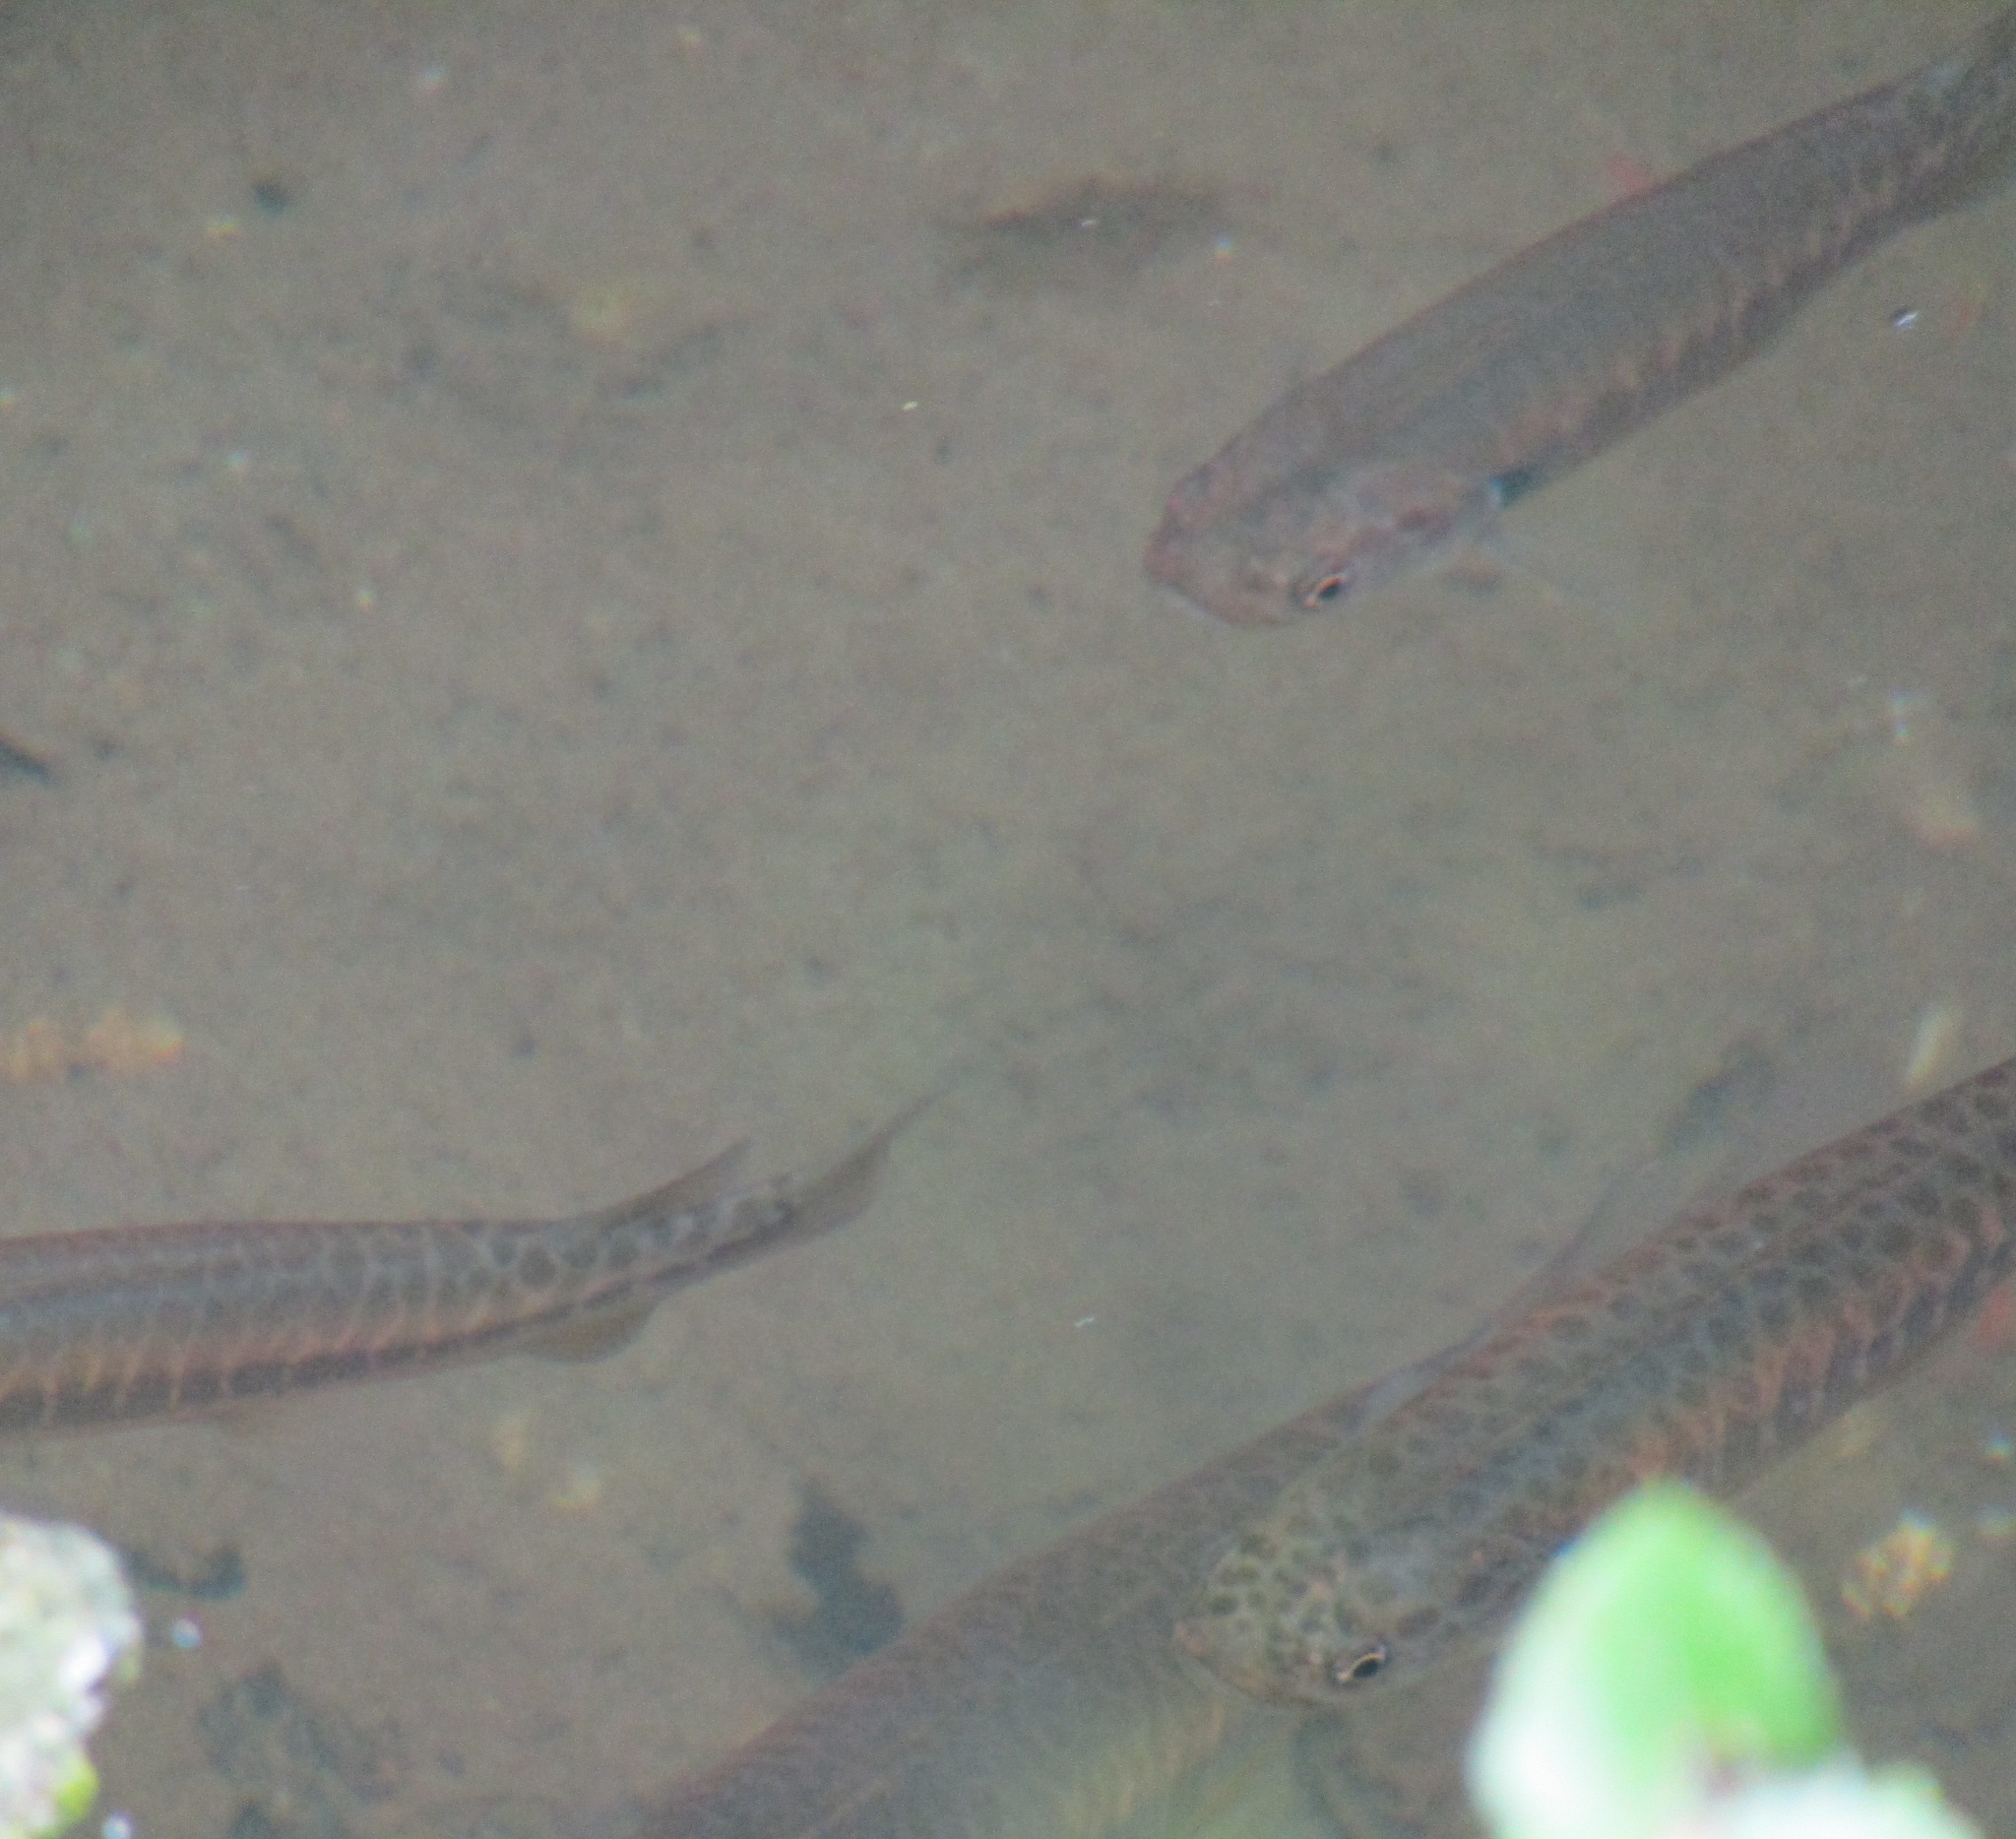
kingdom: Animalia
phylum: Chordata
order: Osmeriformes
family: Galaxiidae
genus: Galaxias
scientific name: Galaxias fasciatus
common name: Banded kokopu
